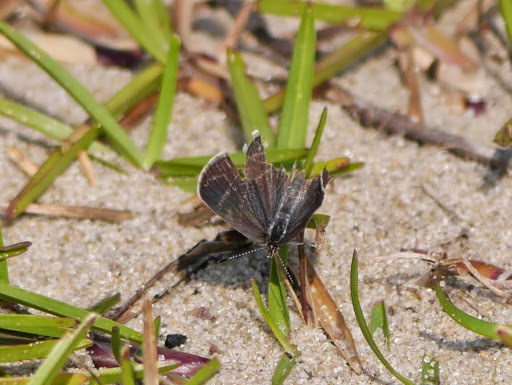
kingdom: Animalia
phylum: Arthropoda
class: Insecta
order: Lepidoptera
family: Lycaenidae
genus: Zizeeria
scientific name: Zizeeria knysna
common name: African grass blue
